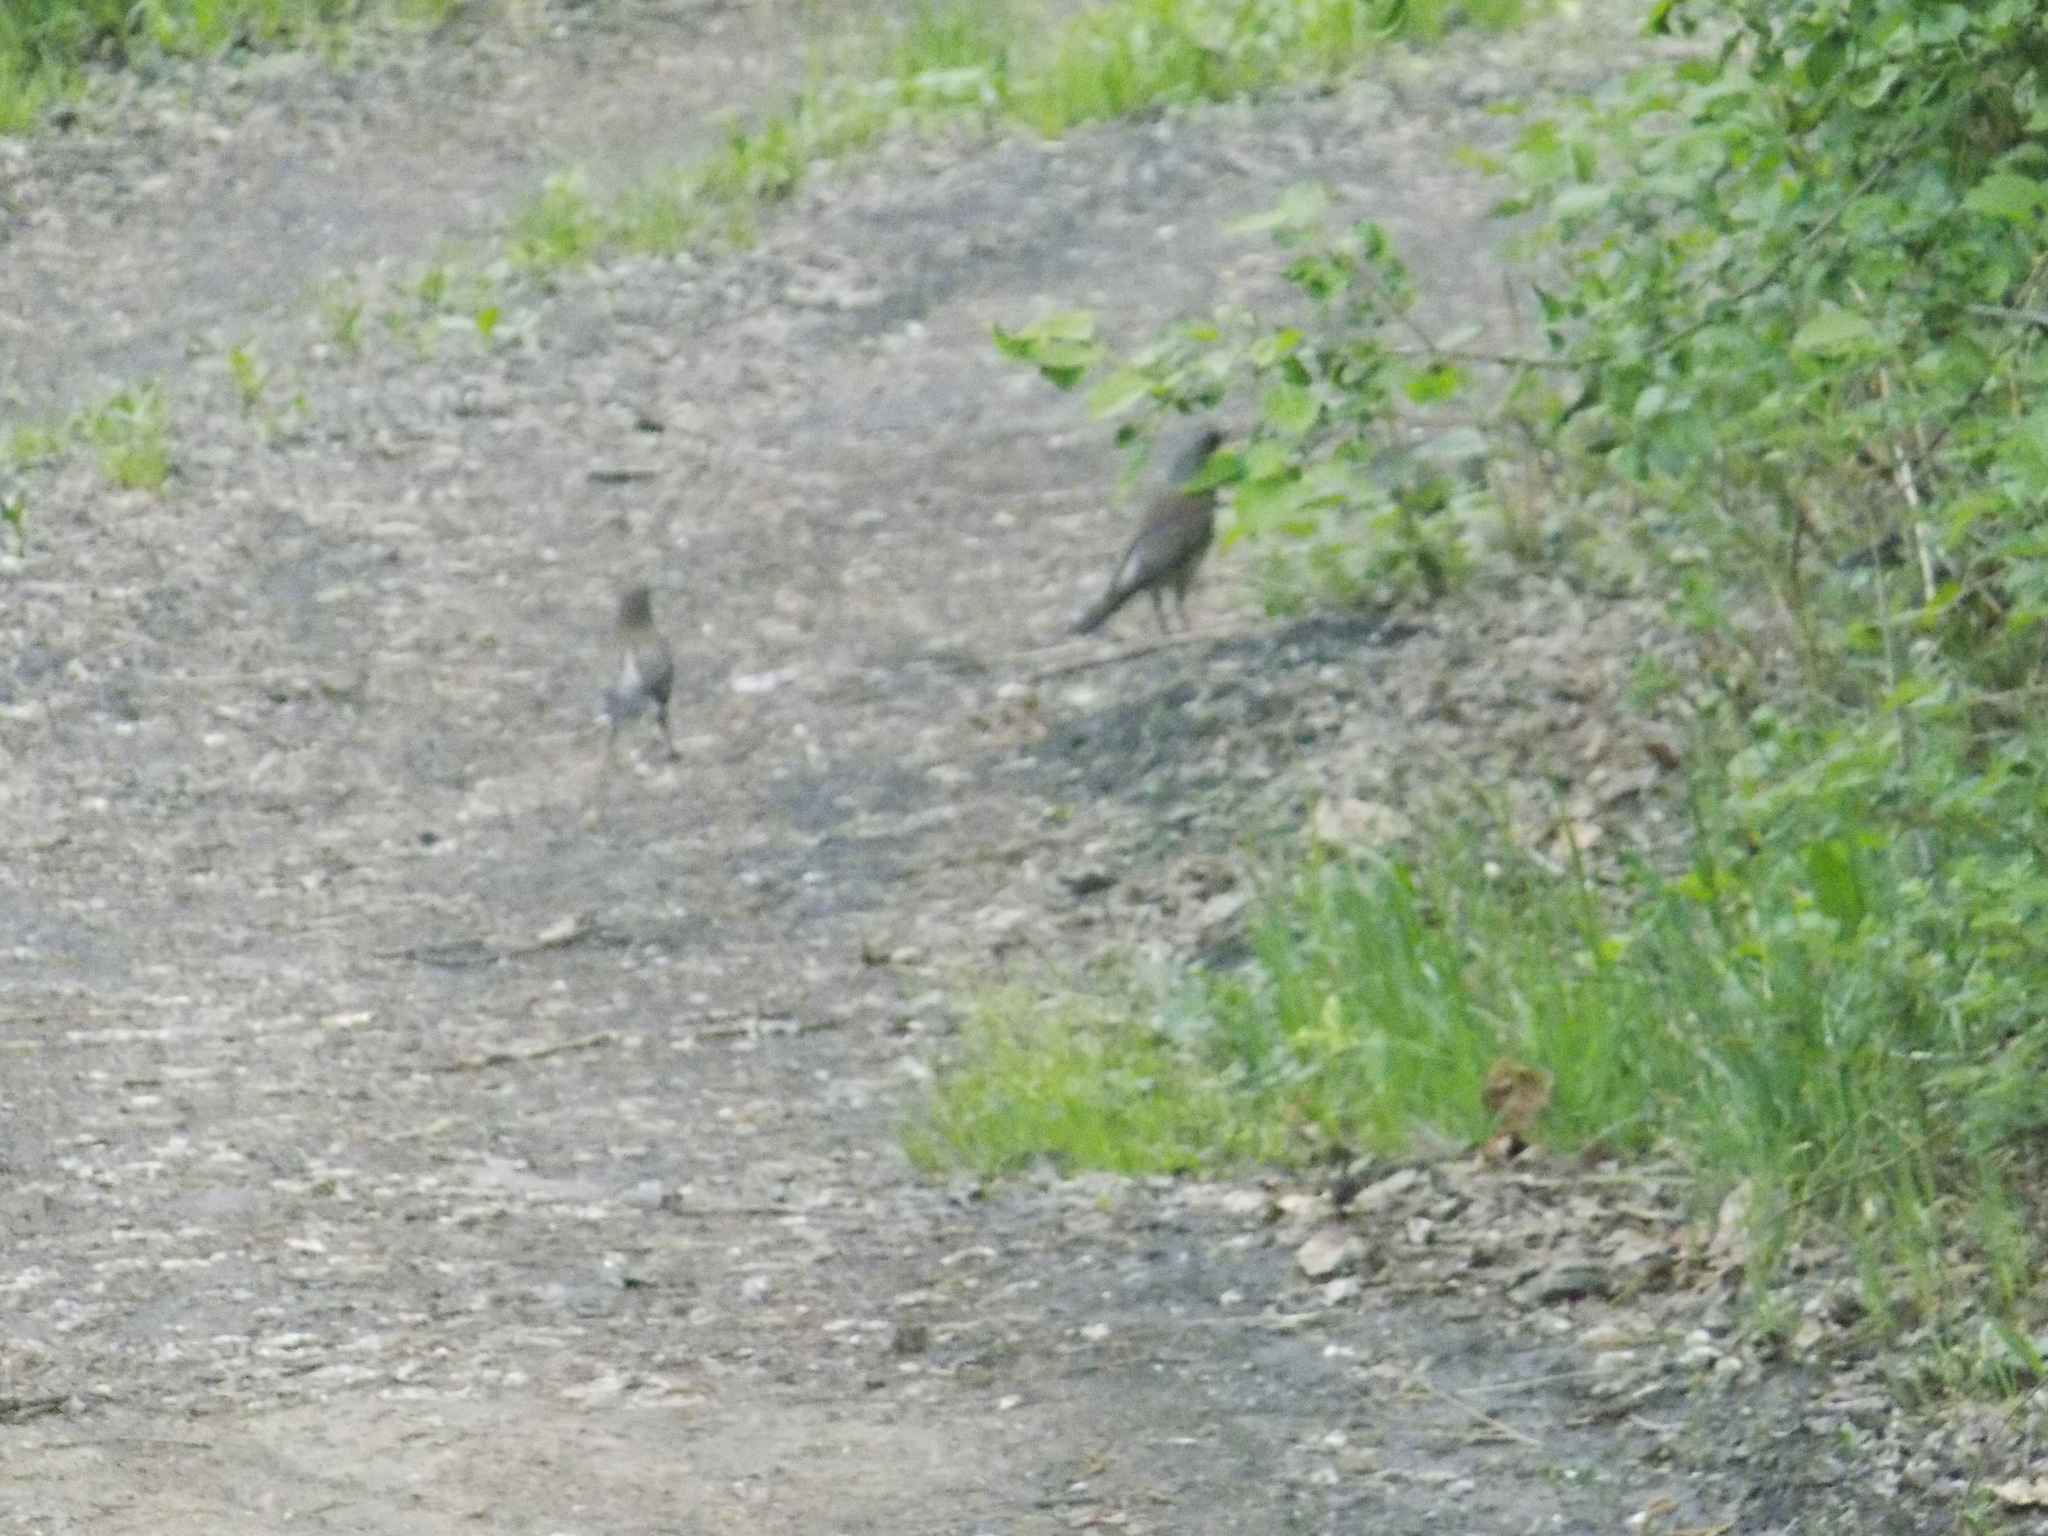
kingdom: Animalia
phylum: Chordata
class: Aves
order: Passeriformes
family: Turdidae
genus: Turdus
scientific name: Turdus pilaris
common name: Fieldfare
